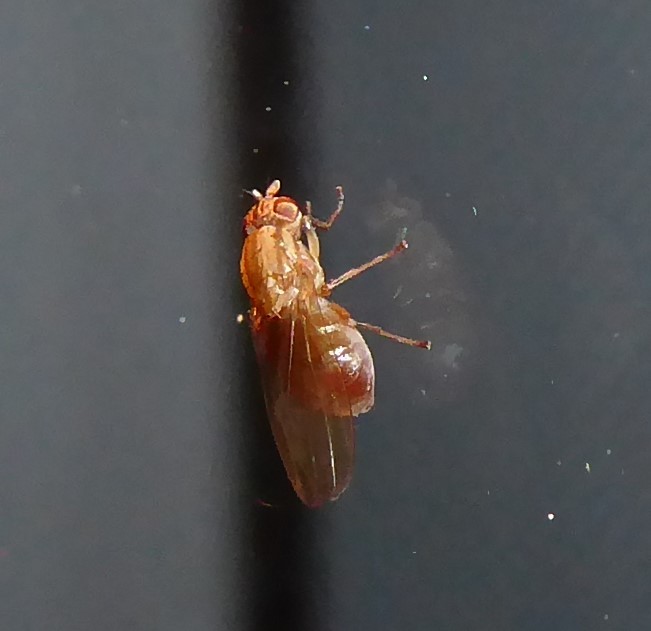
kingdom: Animalia
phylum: Arthropoda
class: Insecta
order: Diptera
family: Lauxaniidae
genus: Poecilohetaerus
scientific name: Poecilohetaerus punctatifacies
